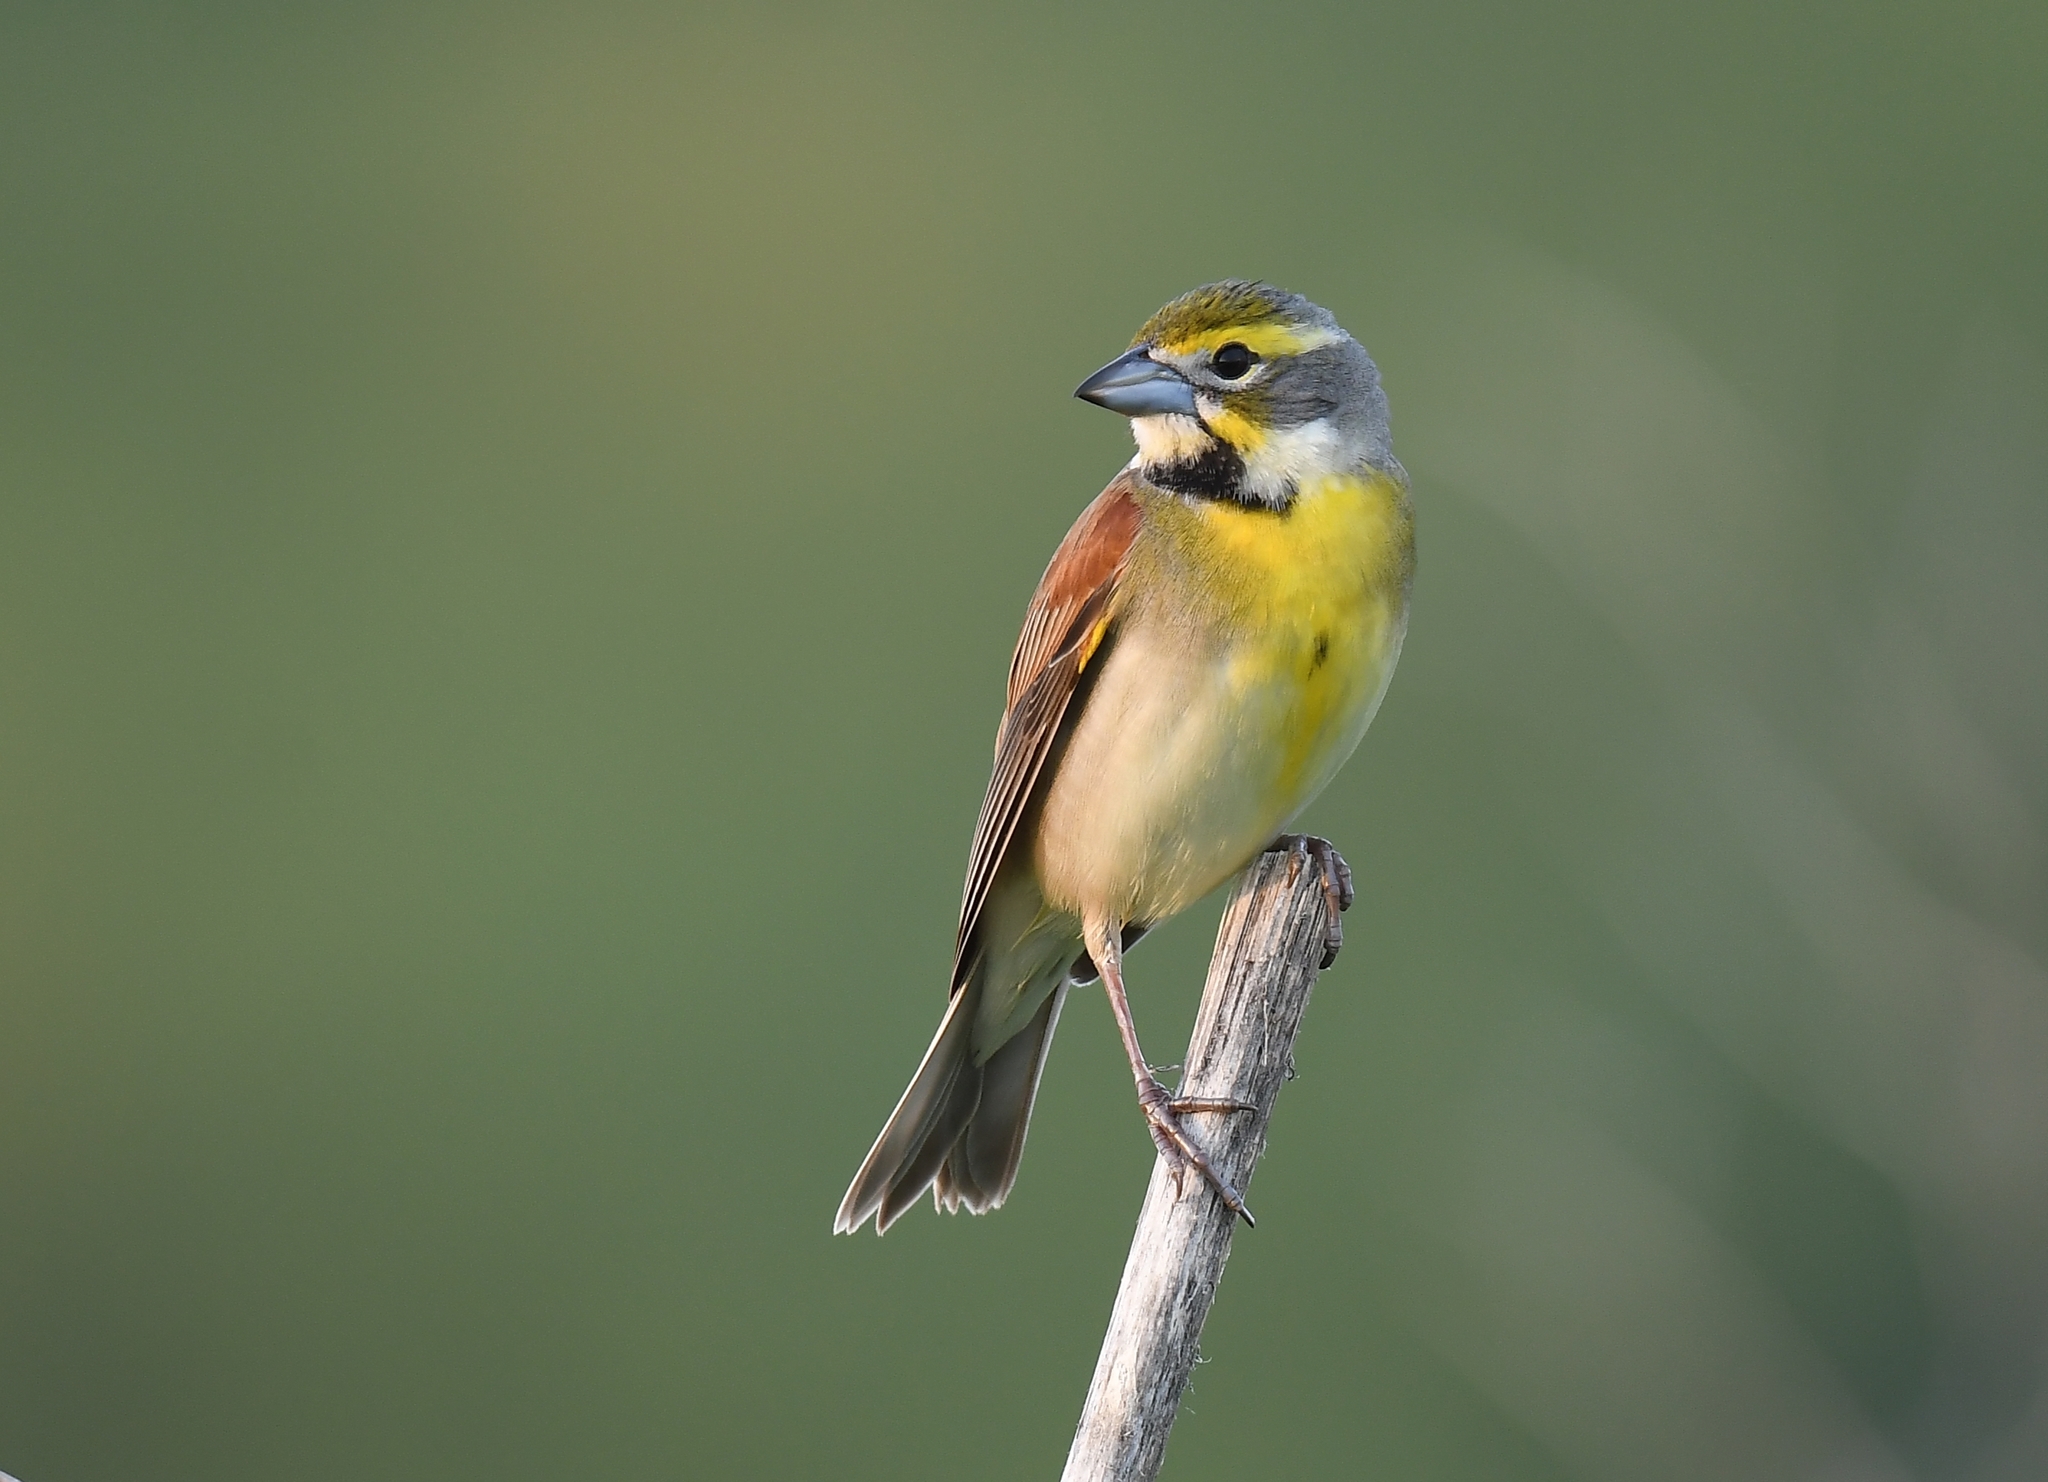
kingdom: Animalia
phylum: Chordata
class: Aves
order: Passeriformes
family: Cardinalidae
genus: Spiza
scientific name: Spiza americana
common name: Dickcissel
